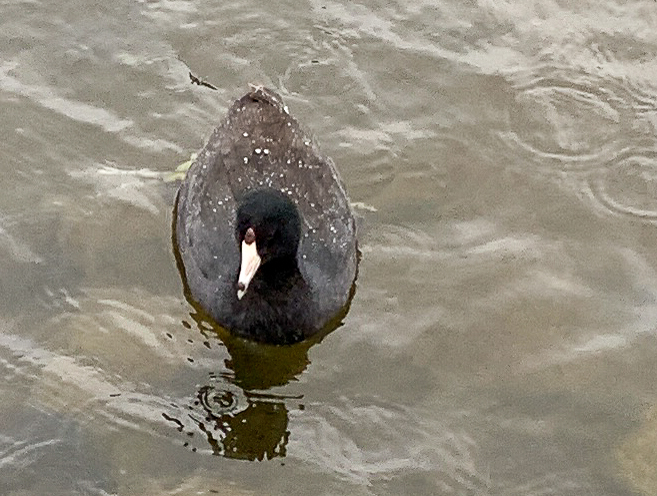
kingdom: Animalia
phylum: Chordata
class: Aves
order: Gruiformes
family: Rallidae
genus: Fulica
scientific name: Fulica americana
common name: American coot
